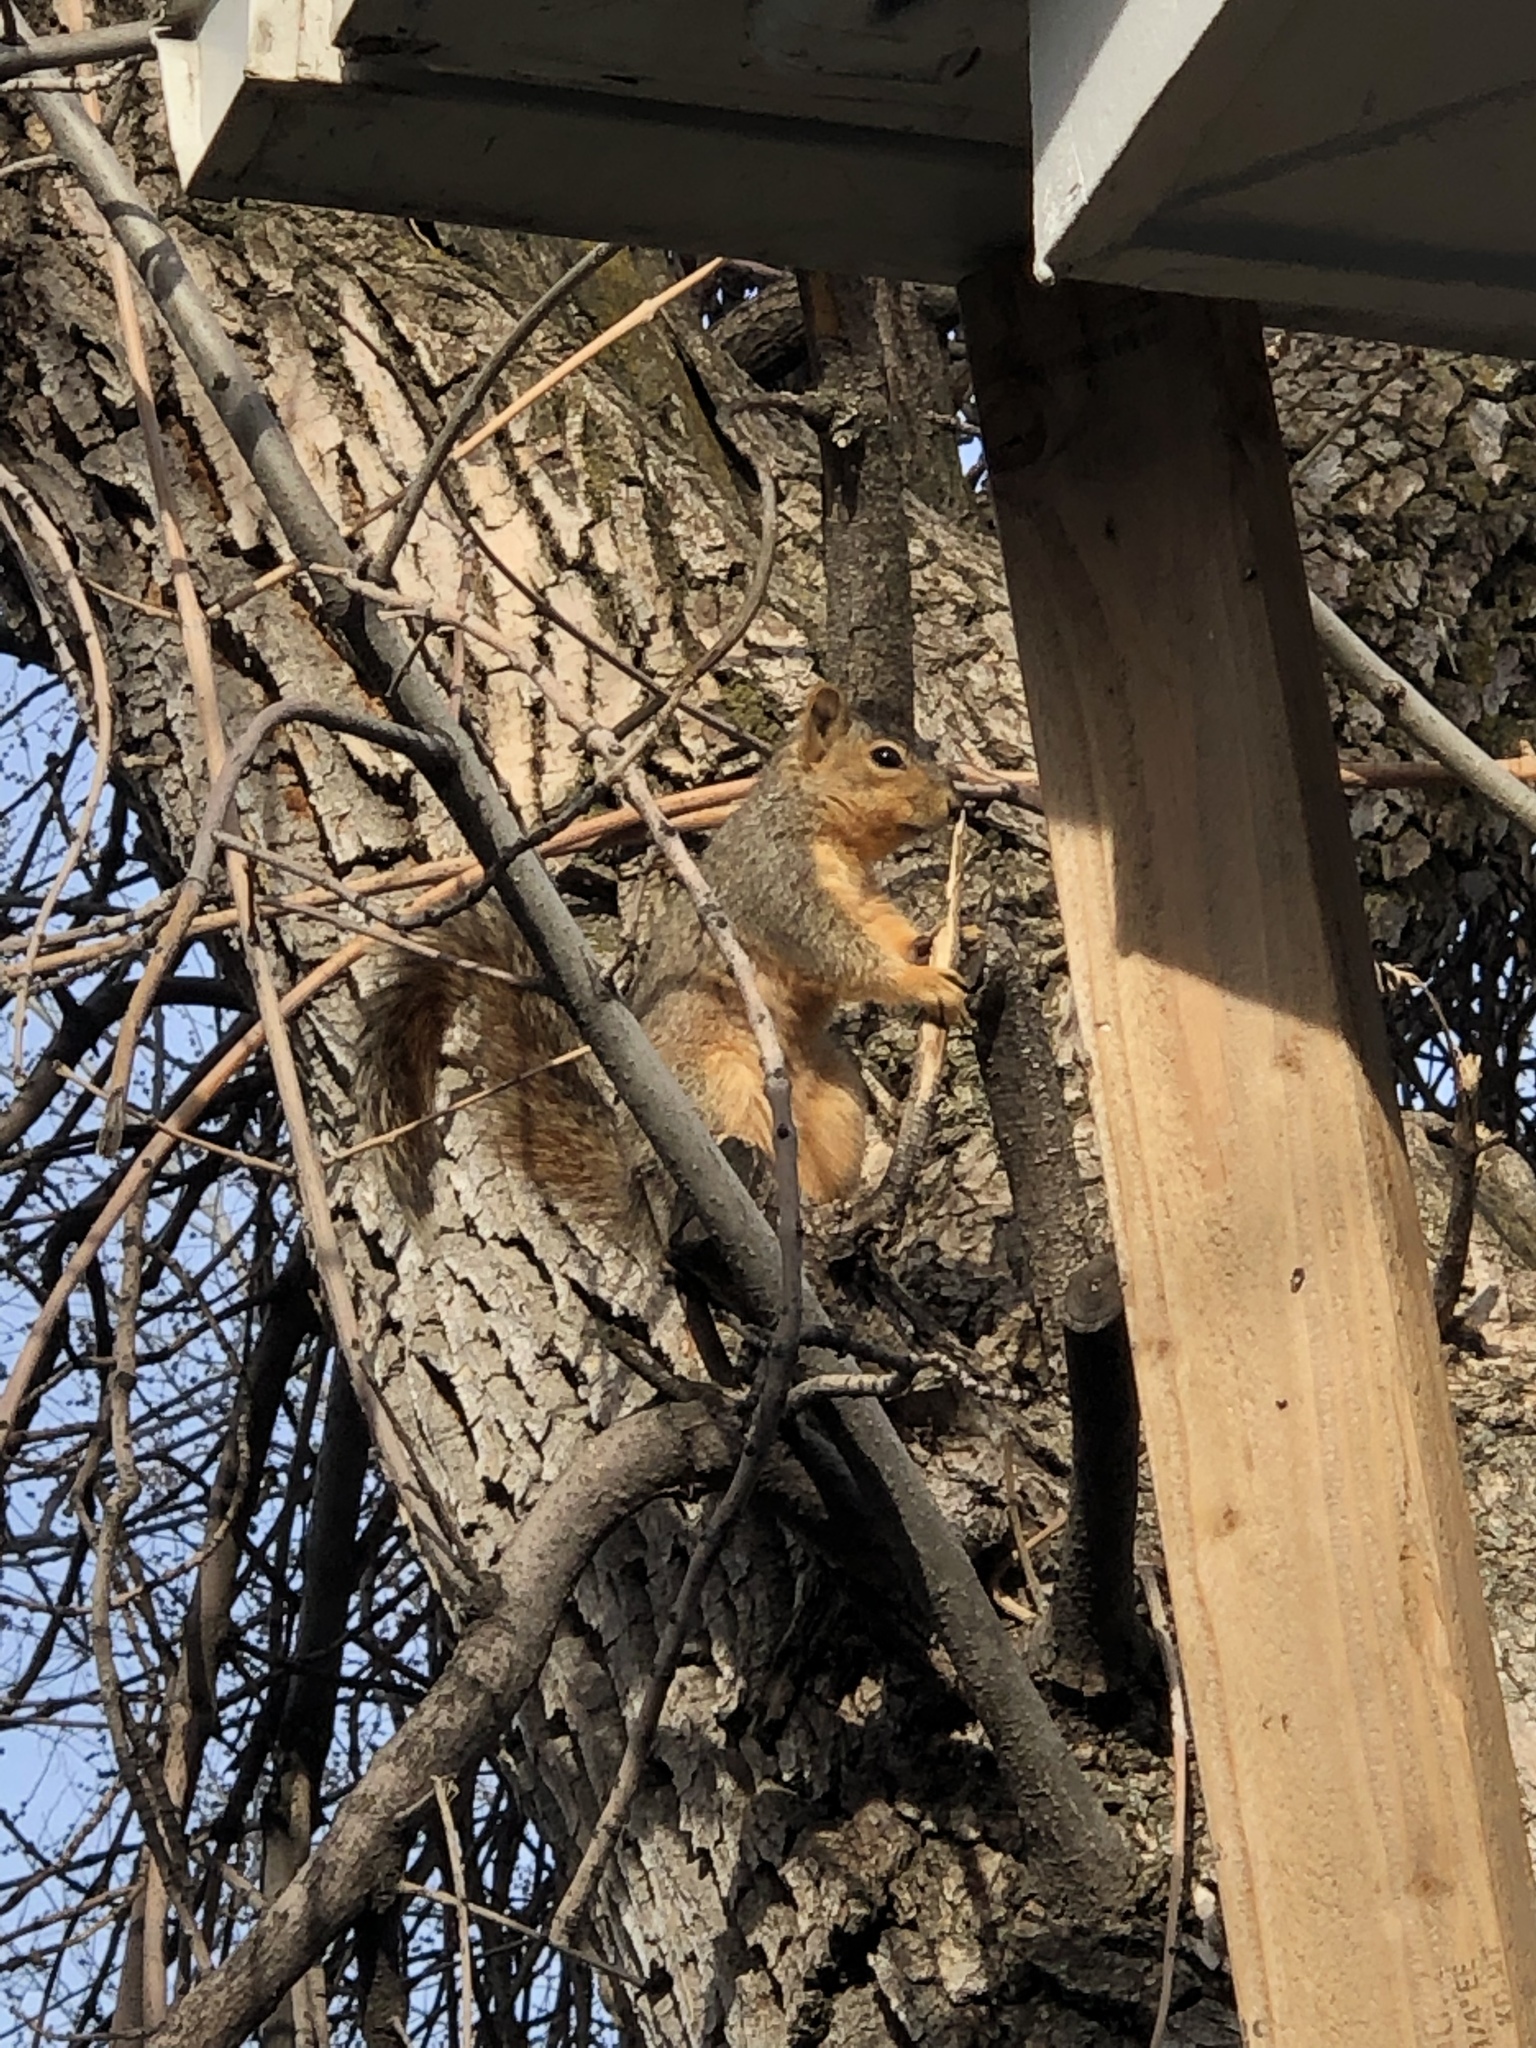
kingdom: Animalia
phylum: Chordata
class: Mammalia
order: Rodentia
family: Sciuridae
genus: Sciurus
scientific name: Sciurus niger
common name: Fox squirrel
